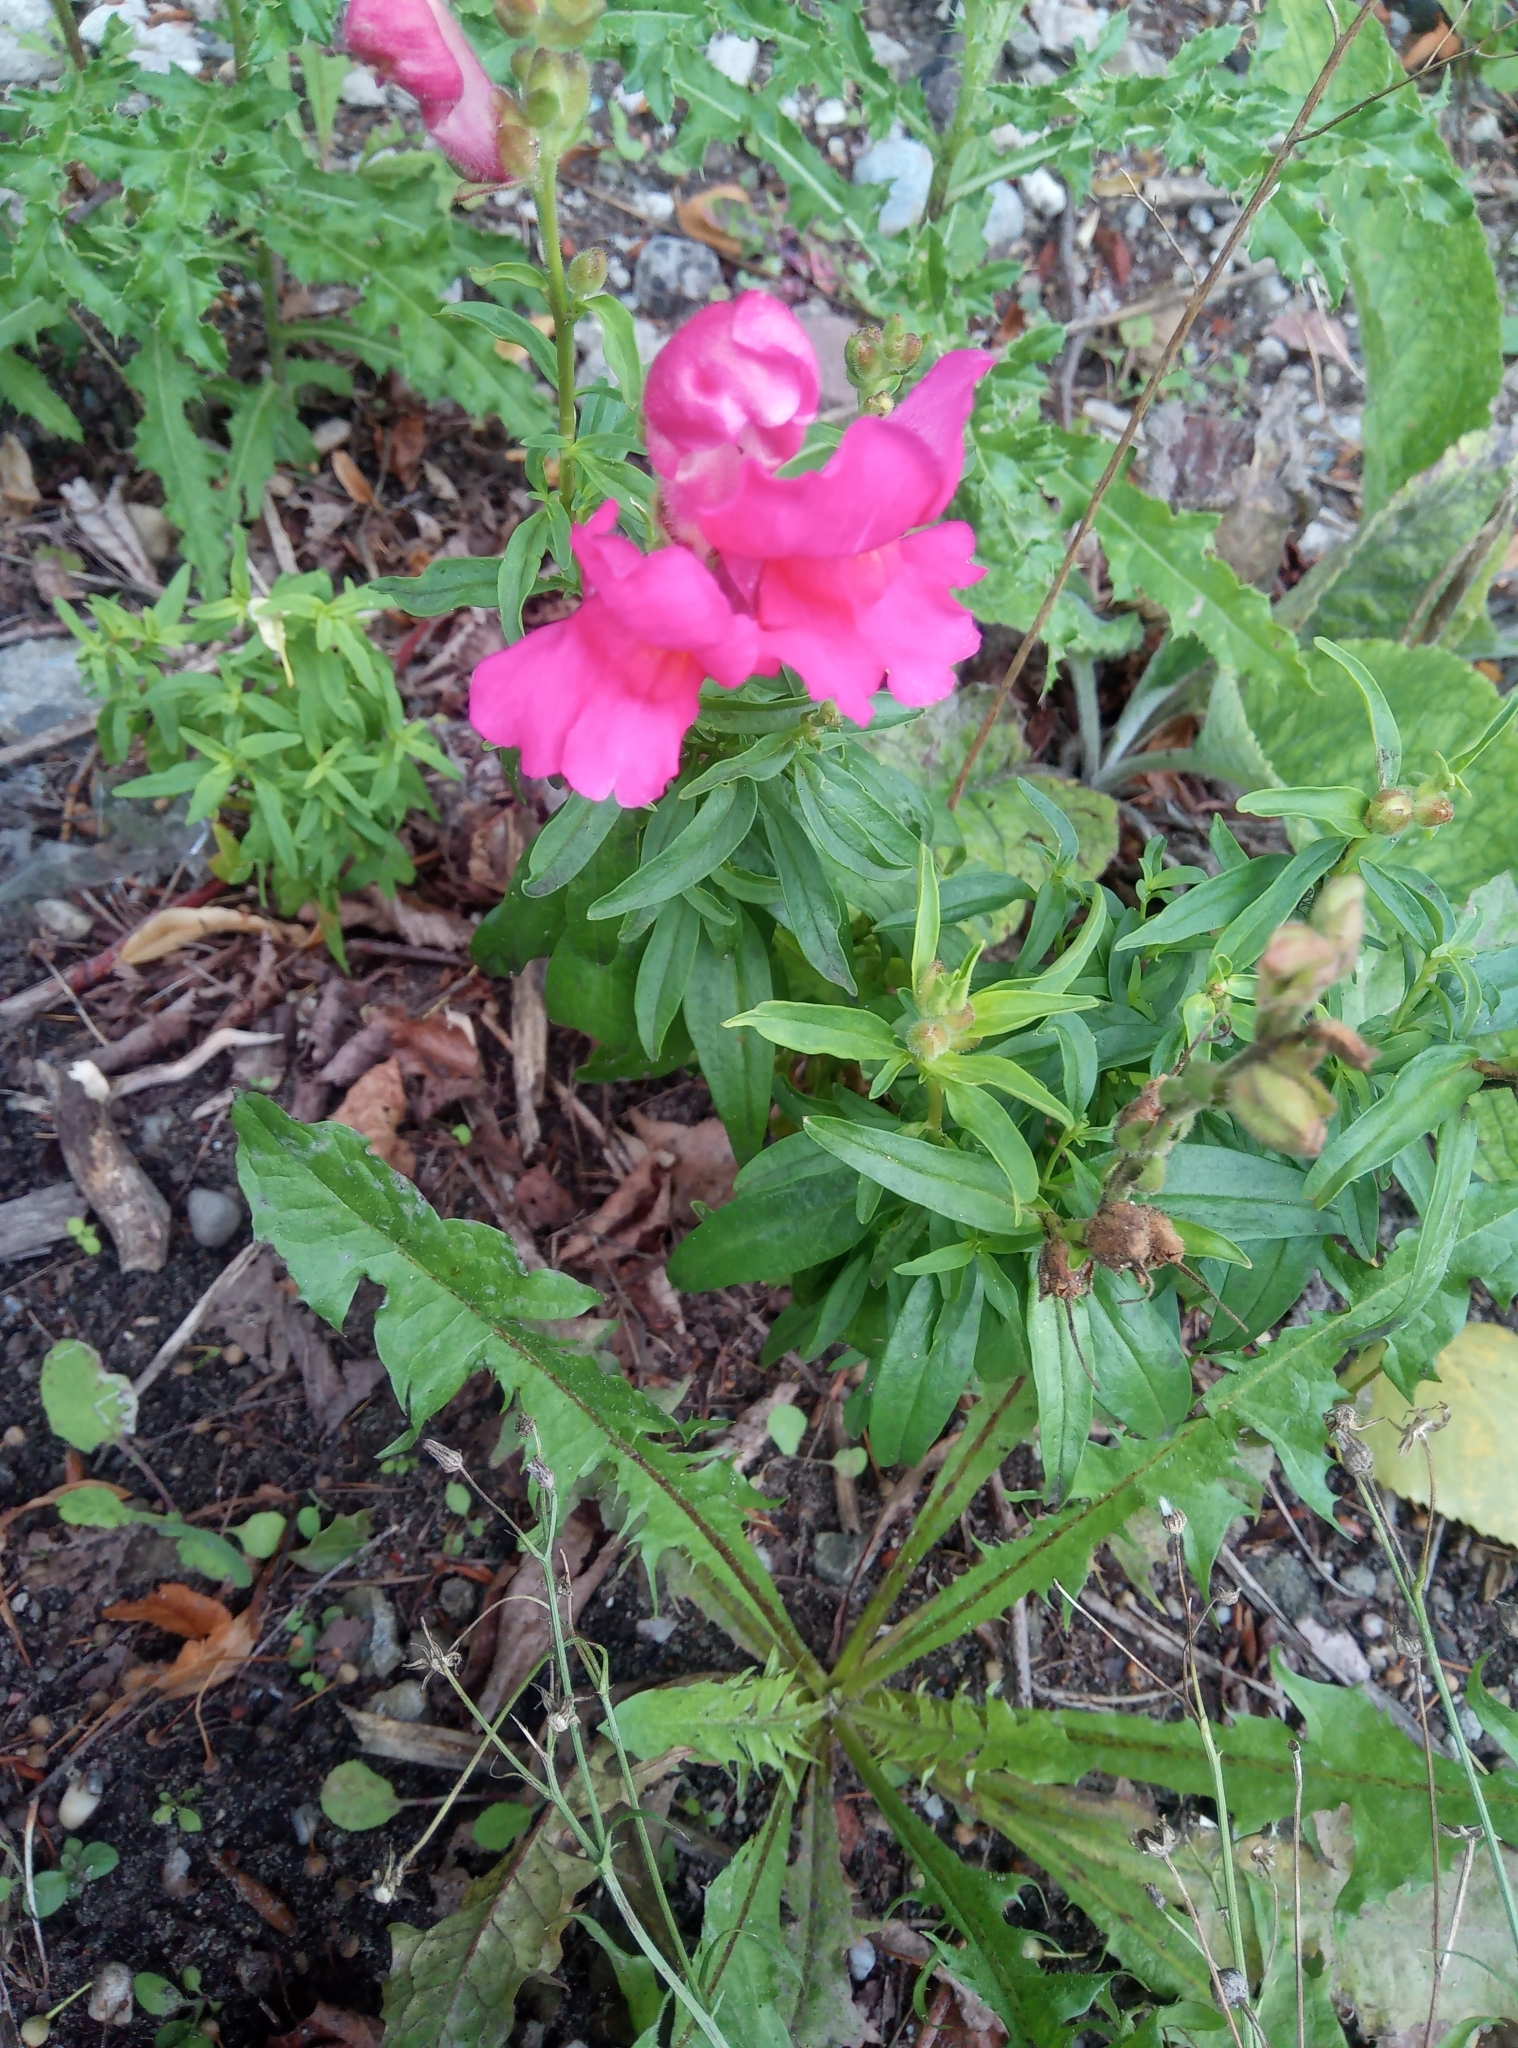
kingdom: Plantae
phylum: Tracheophyta
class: Magnoliopsida
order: Lamiales
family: Plantaginaceae
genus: Antirrhinum
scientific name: Antirrhinum majus
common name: Snapdragon
